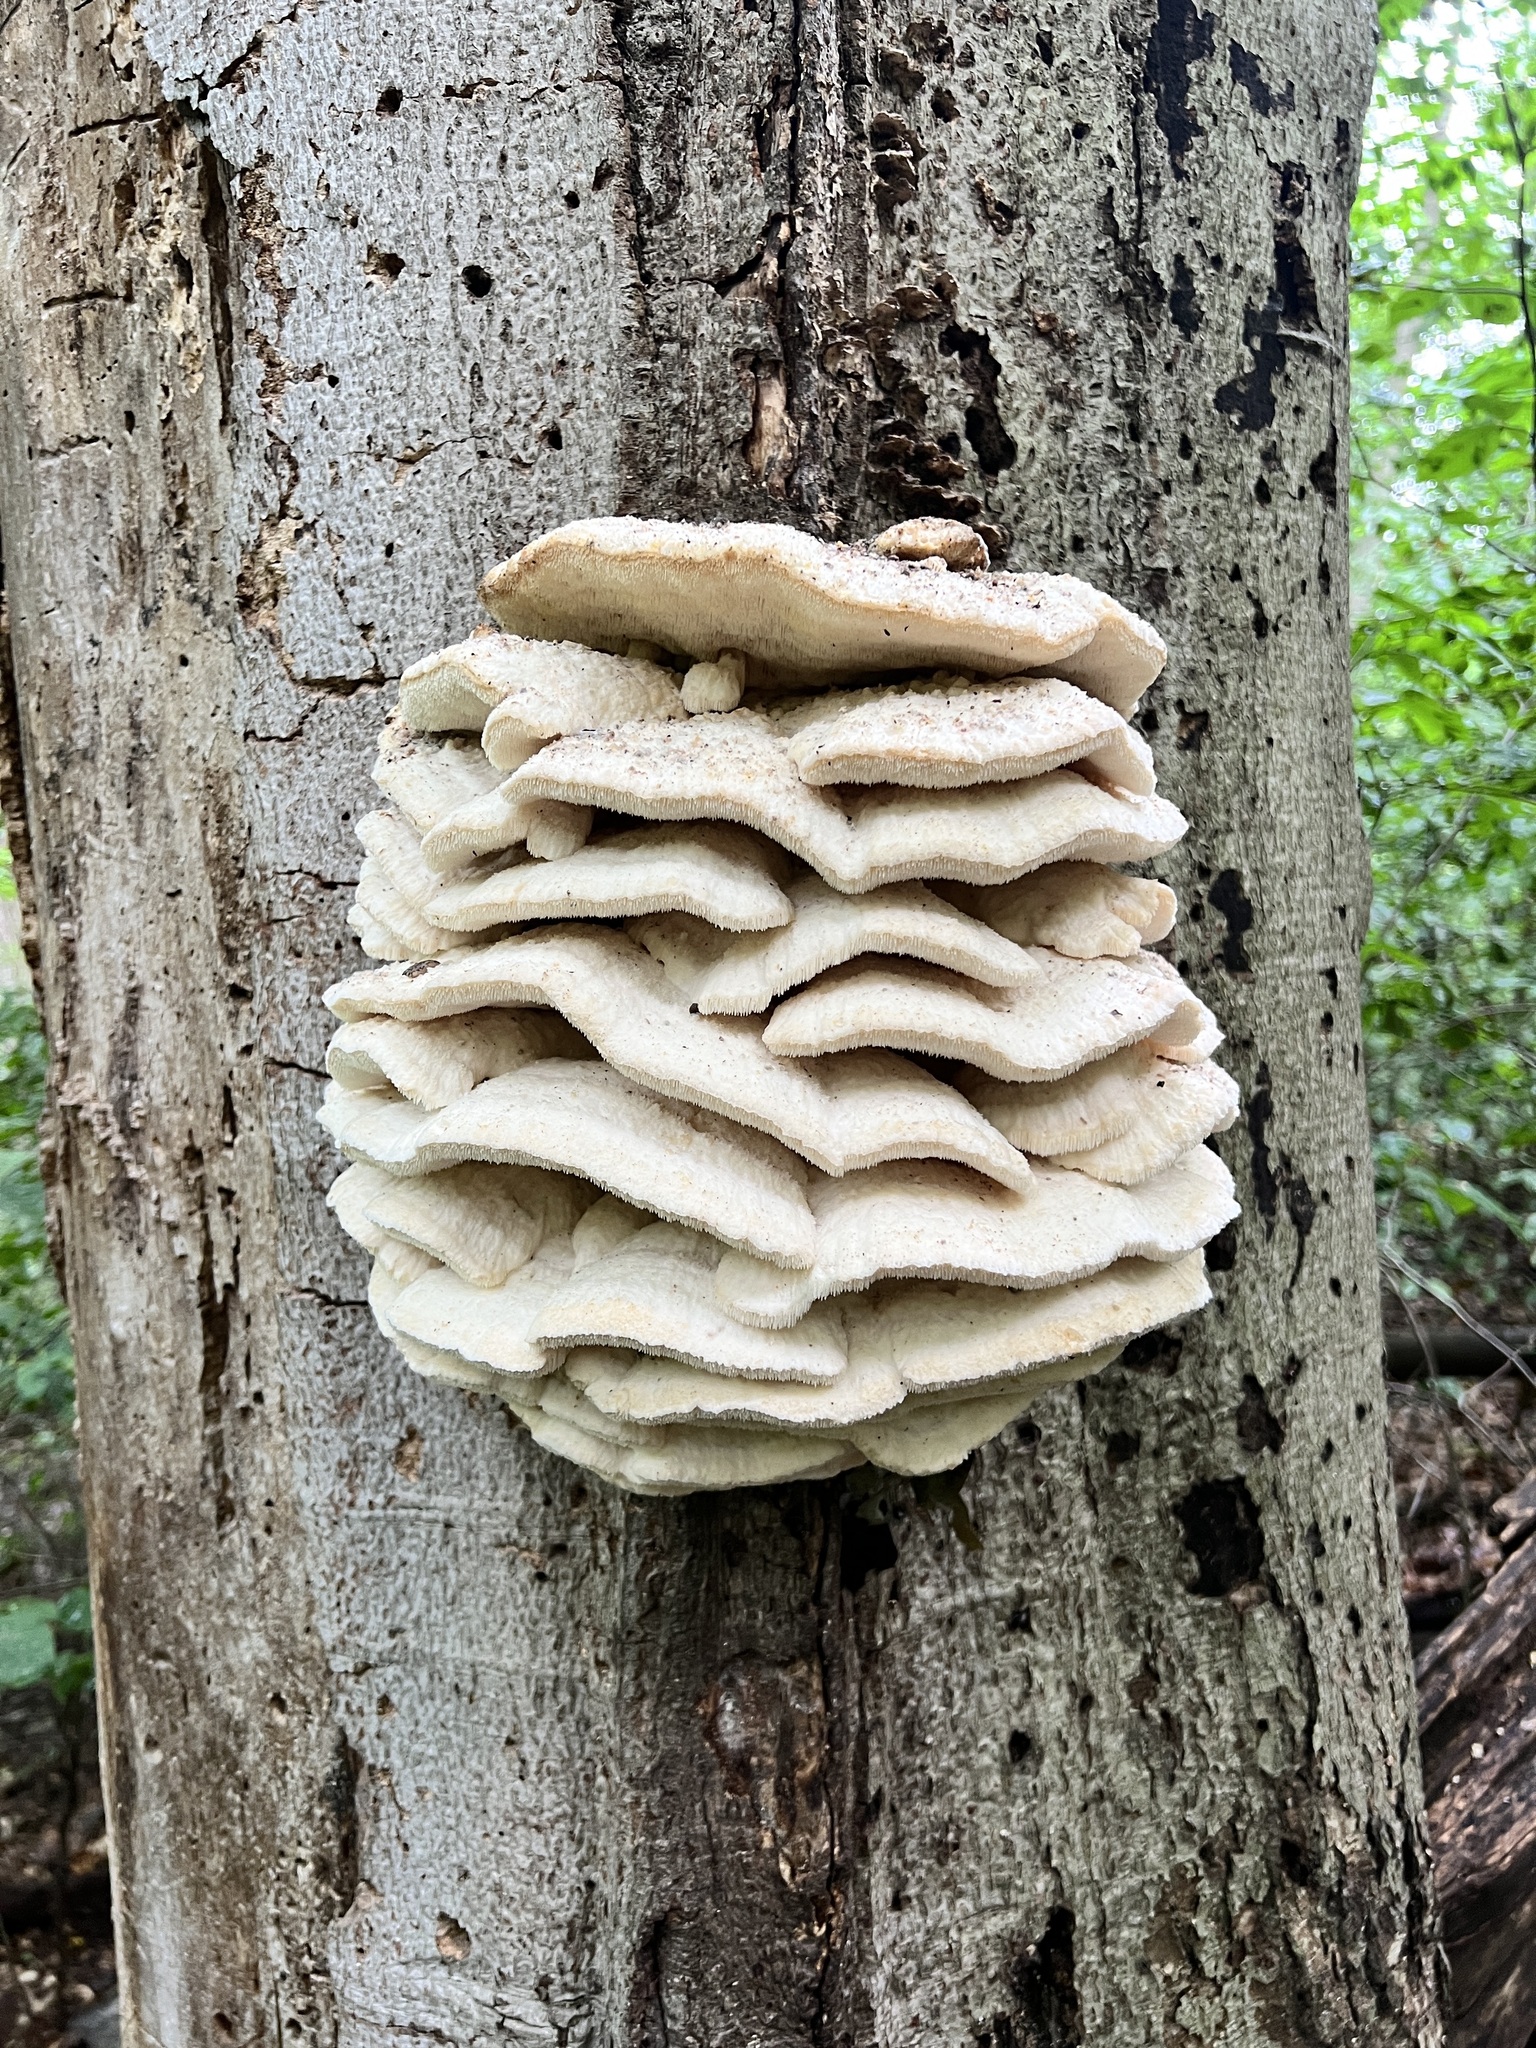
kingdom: Fungi
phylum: Basidiomycota
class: Agaricomycetes
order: Polyporales
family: Meruliaceae
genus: Climacodon
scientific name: Climacodon septentrionalis
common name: Northern tooth
